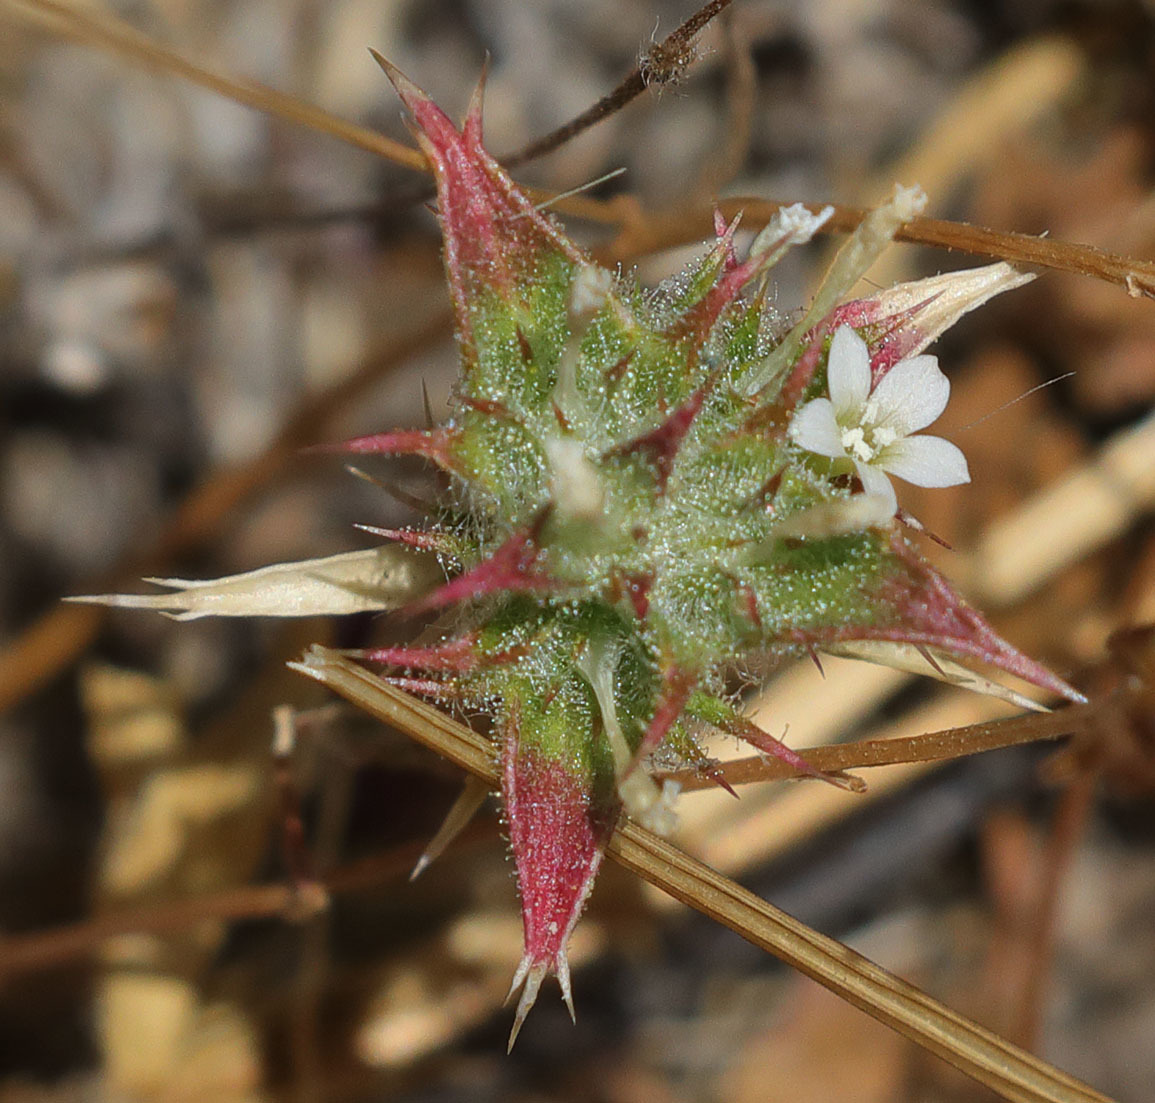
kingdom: Plantae
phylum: Tracheophyta
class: Magnoliopsida
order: Ericales
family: Polemoniaceae
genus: Navarretia
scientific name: Navarretia atractyloides
